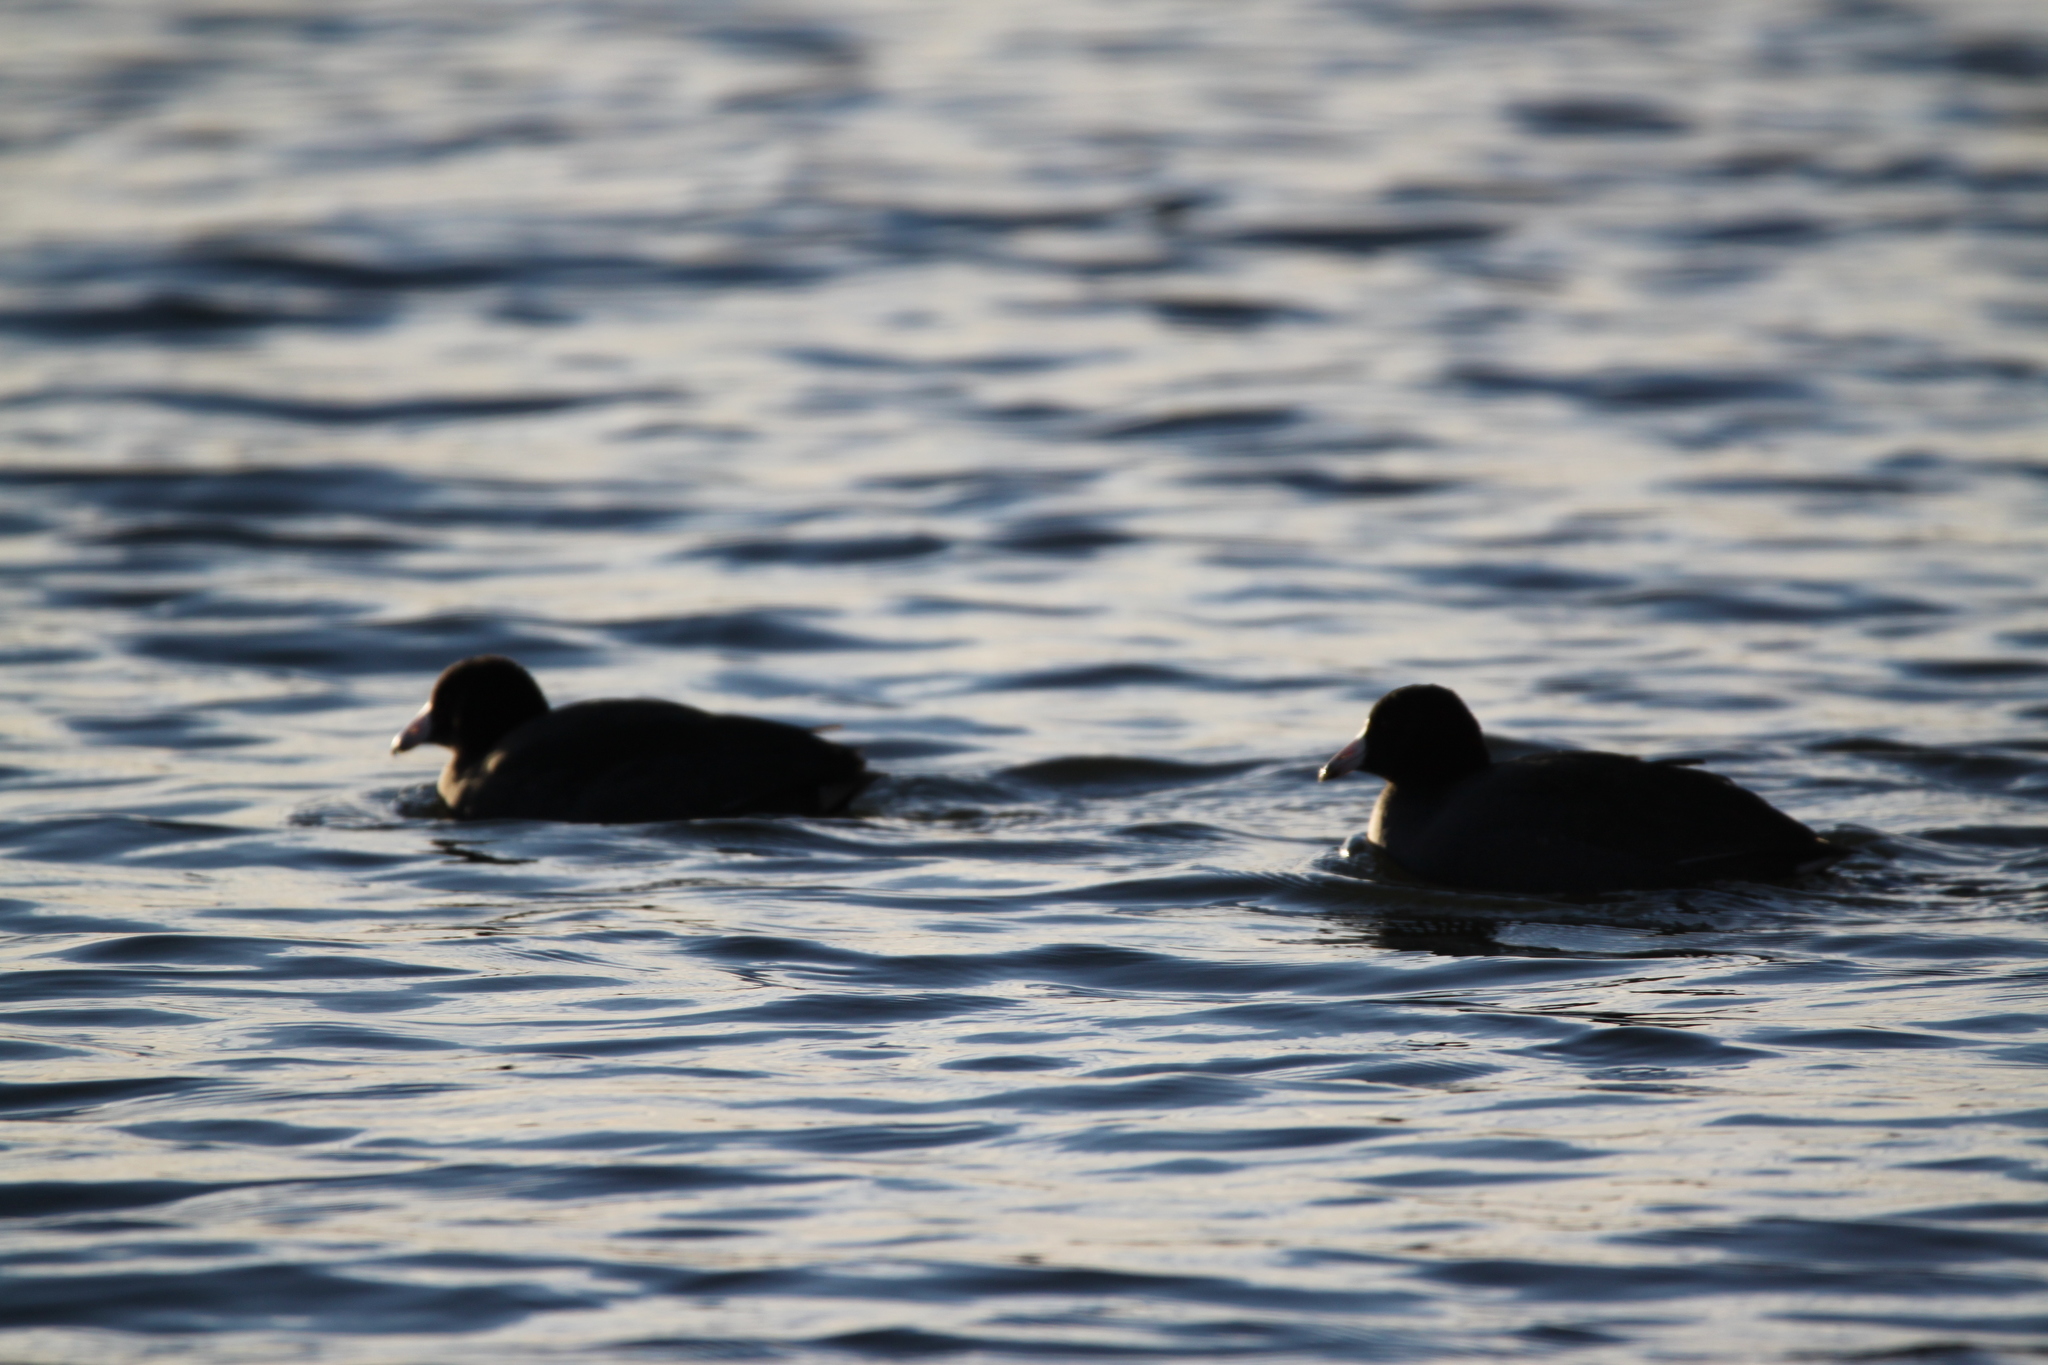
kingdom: Animalia
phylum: Chordata
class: Aves
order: Gruiformes
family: Rallidae
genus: Fulica
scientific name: Fulica americana
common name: American coot
